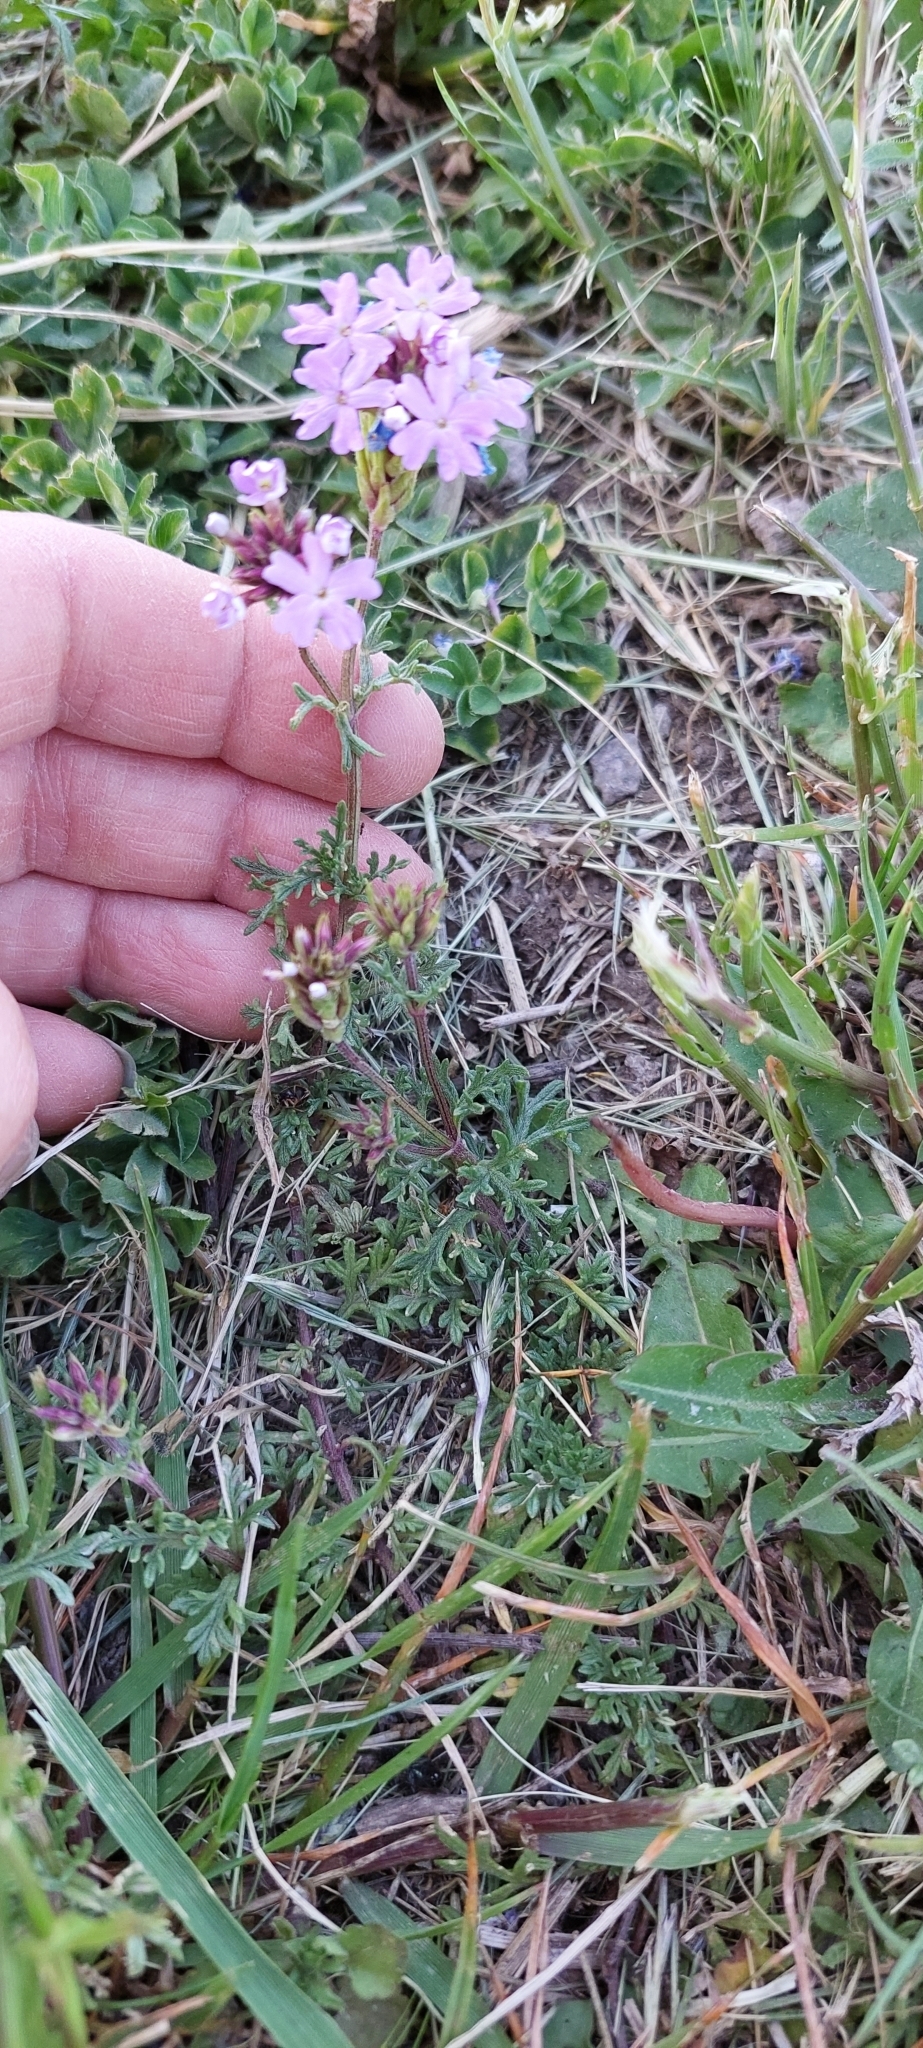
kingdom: Plantae
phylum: Tracheophyta
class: Magnoliopsida
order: Lamiales
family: Verbenaceae
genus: Verbena
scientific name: Verbena tenera
